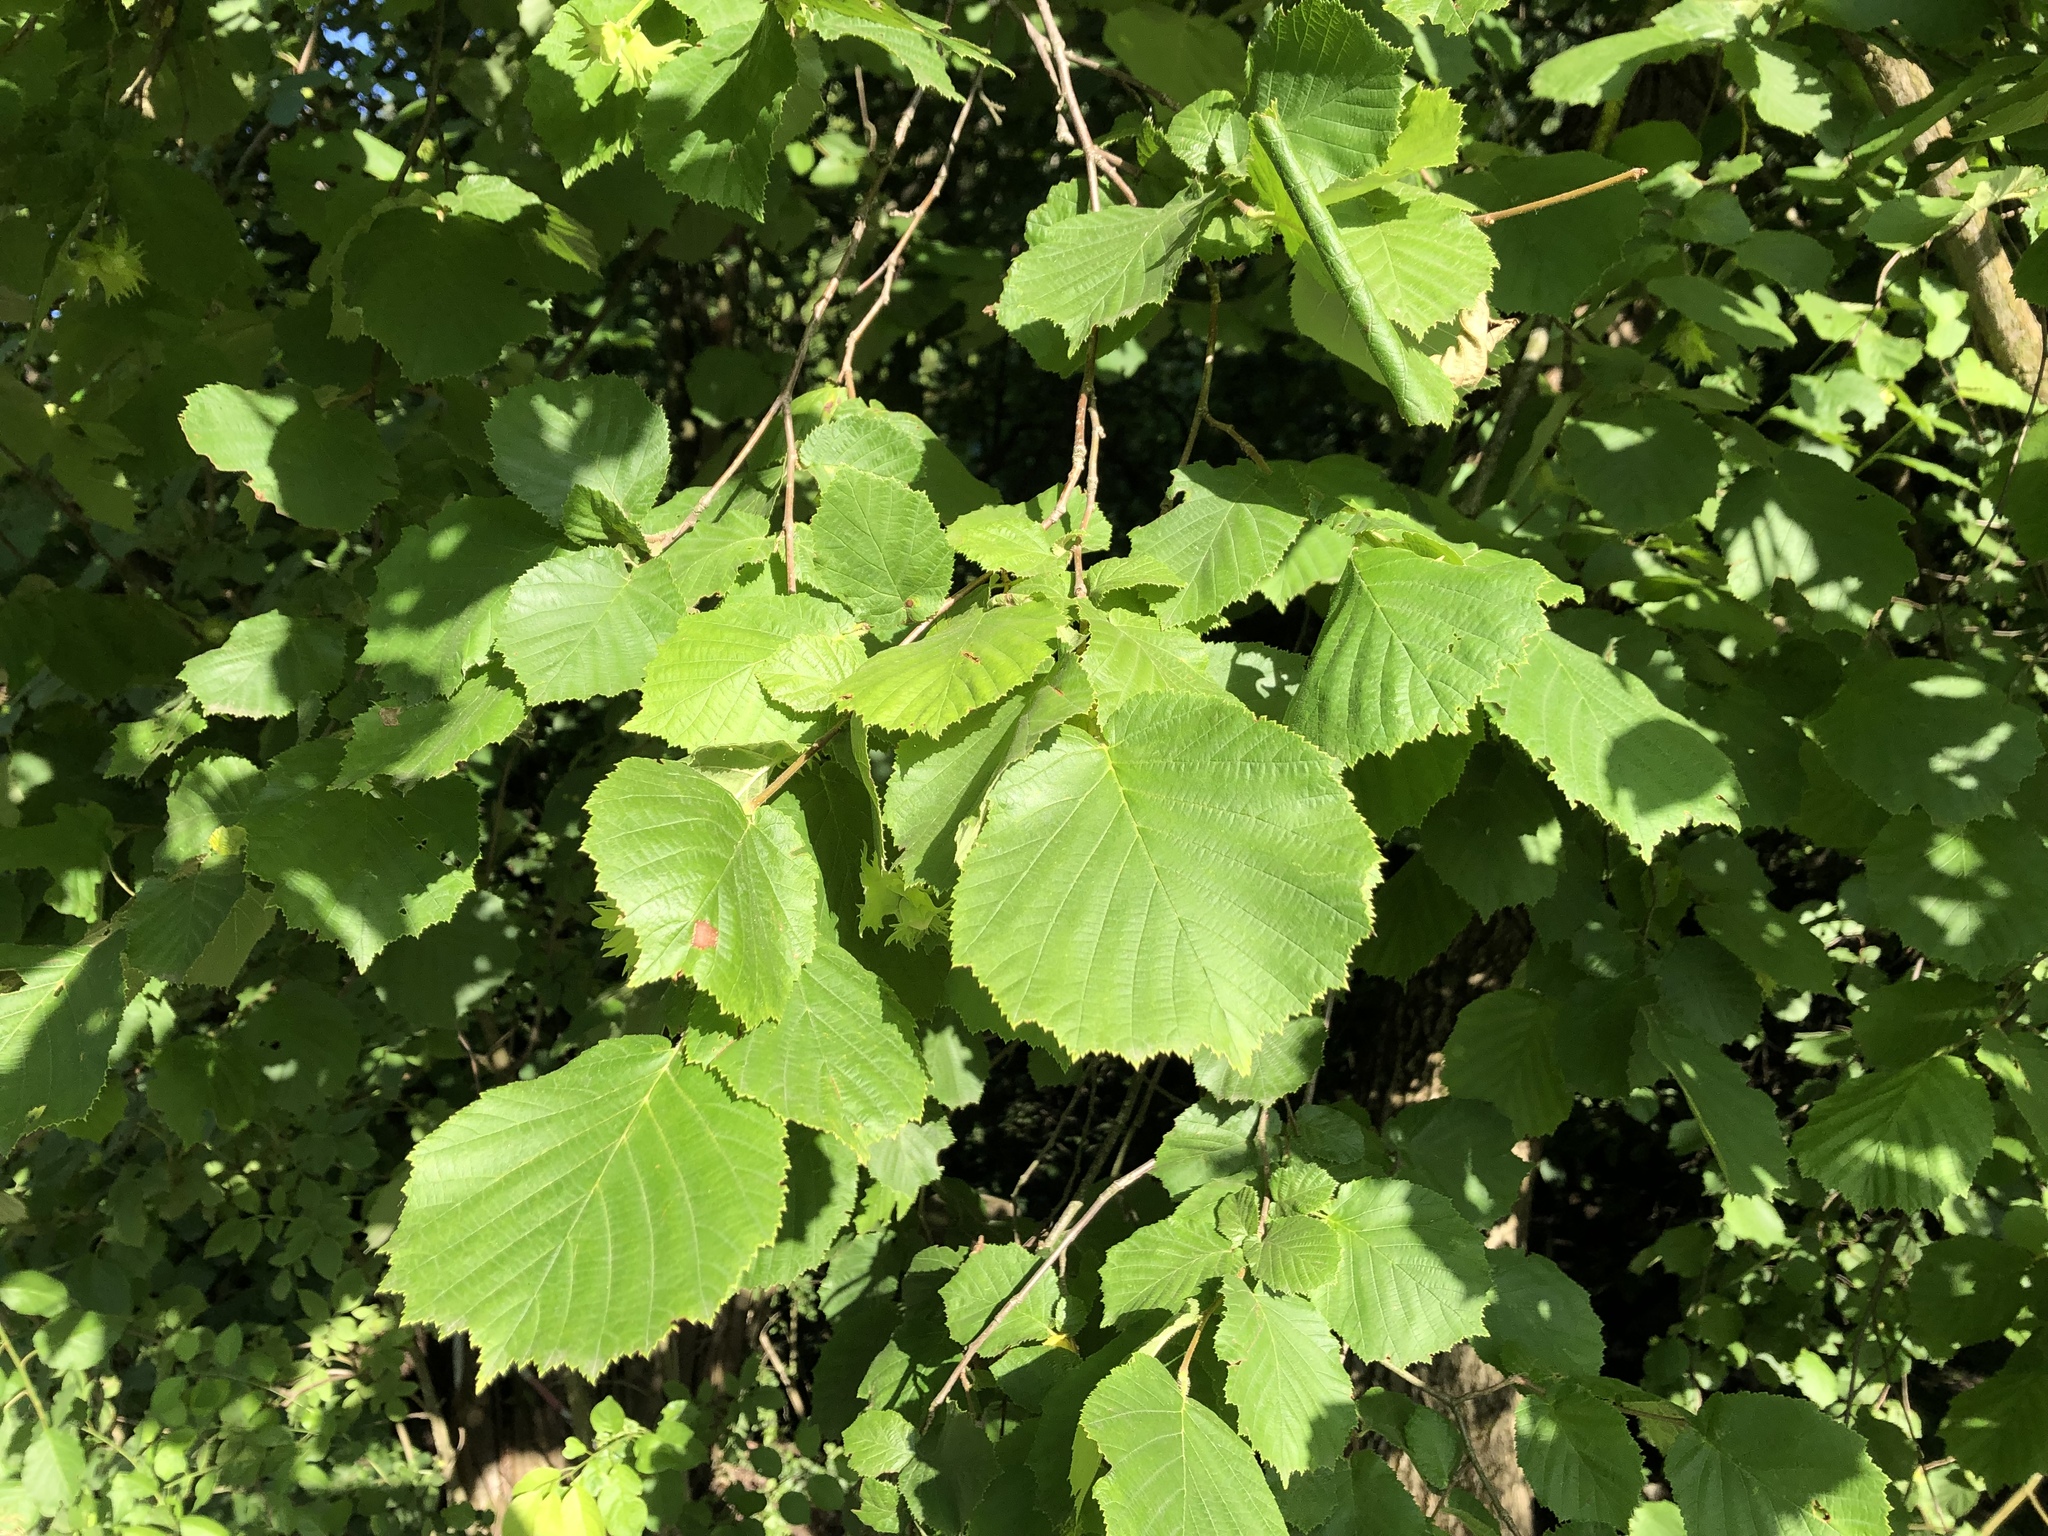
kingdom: Plantae
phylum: Tracheophyta
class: Magnoliopsida
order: Fagales
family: Betulaceae
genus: Corylus
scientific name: Corylus avellana
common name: European hazel
